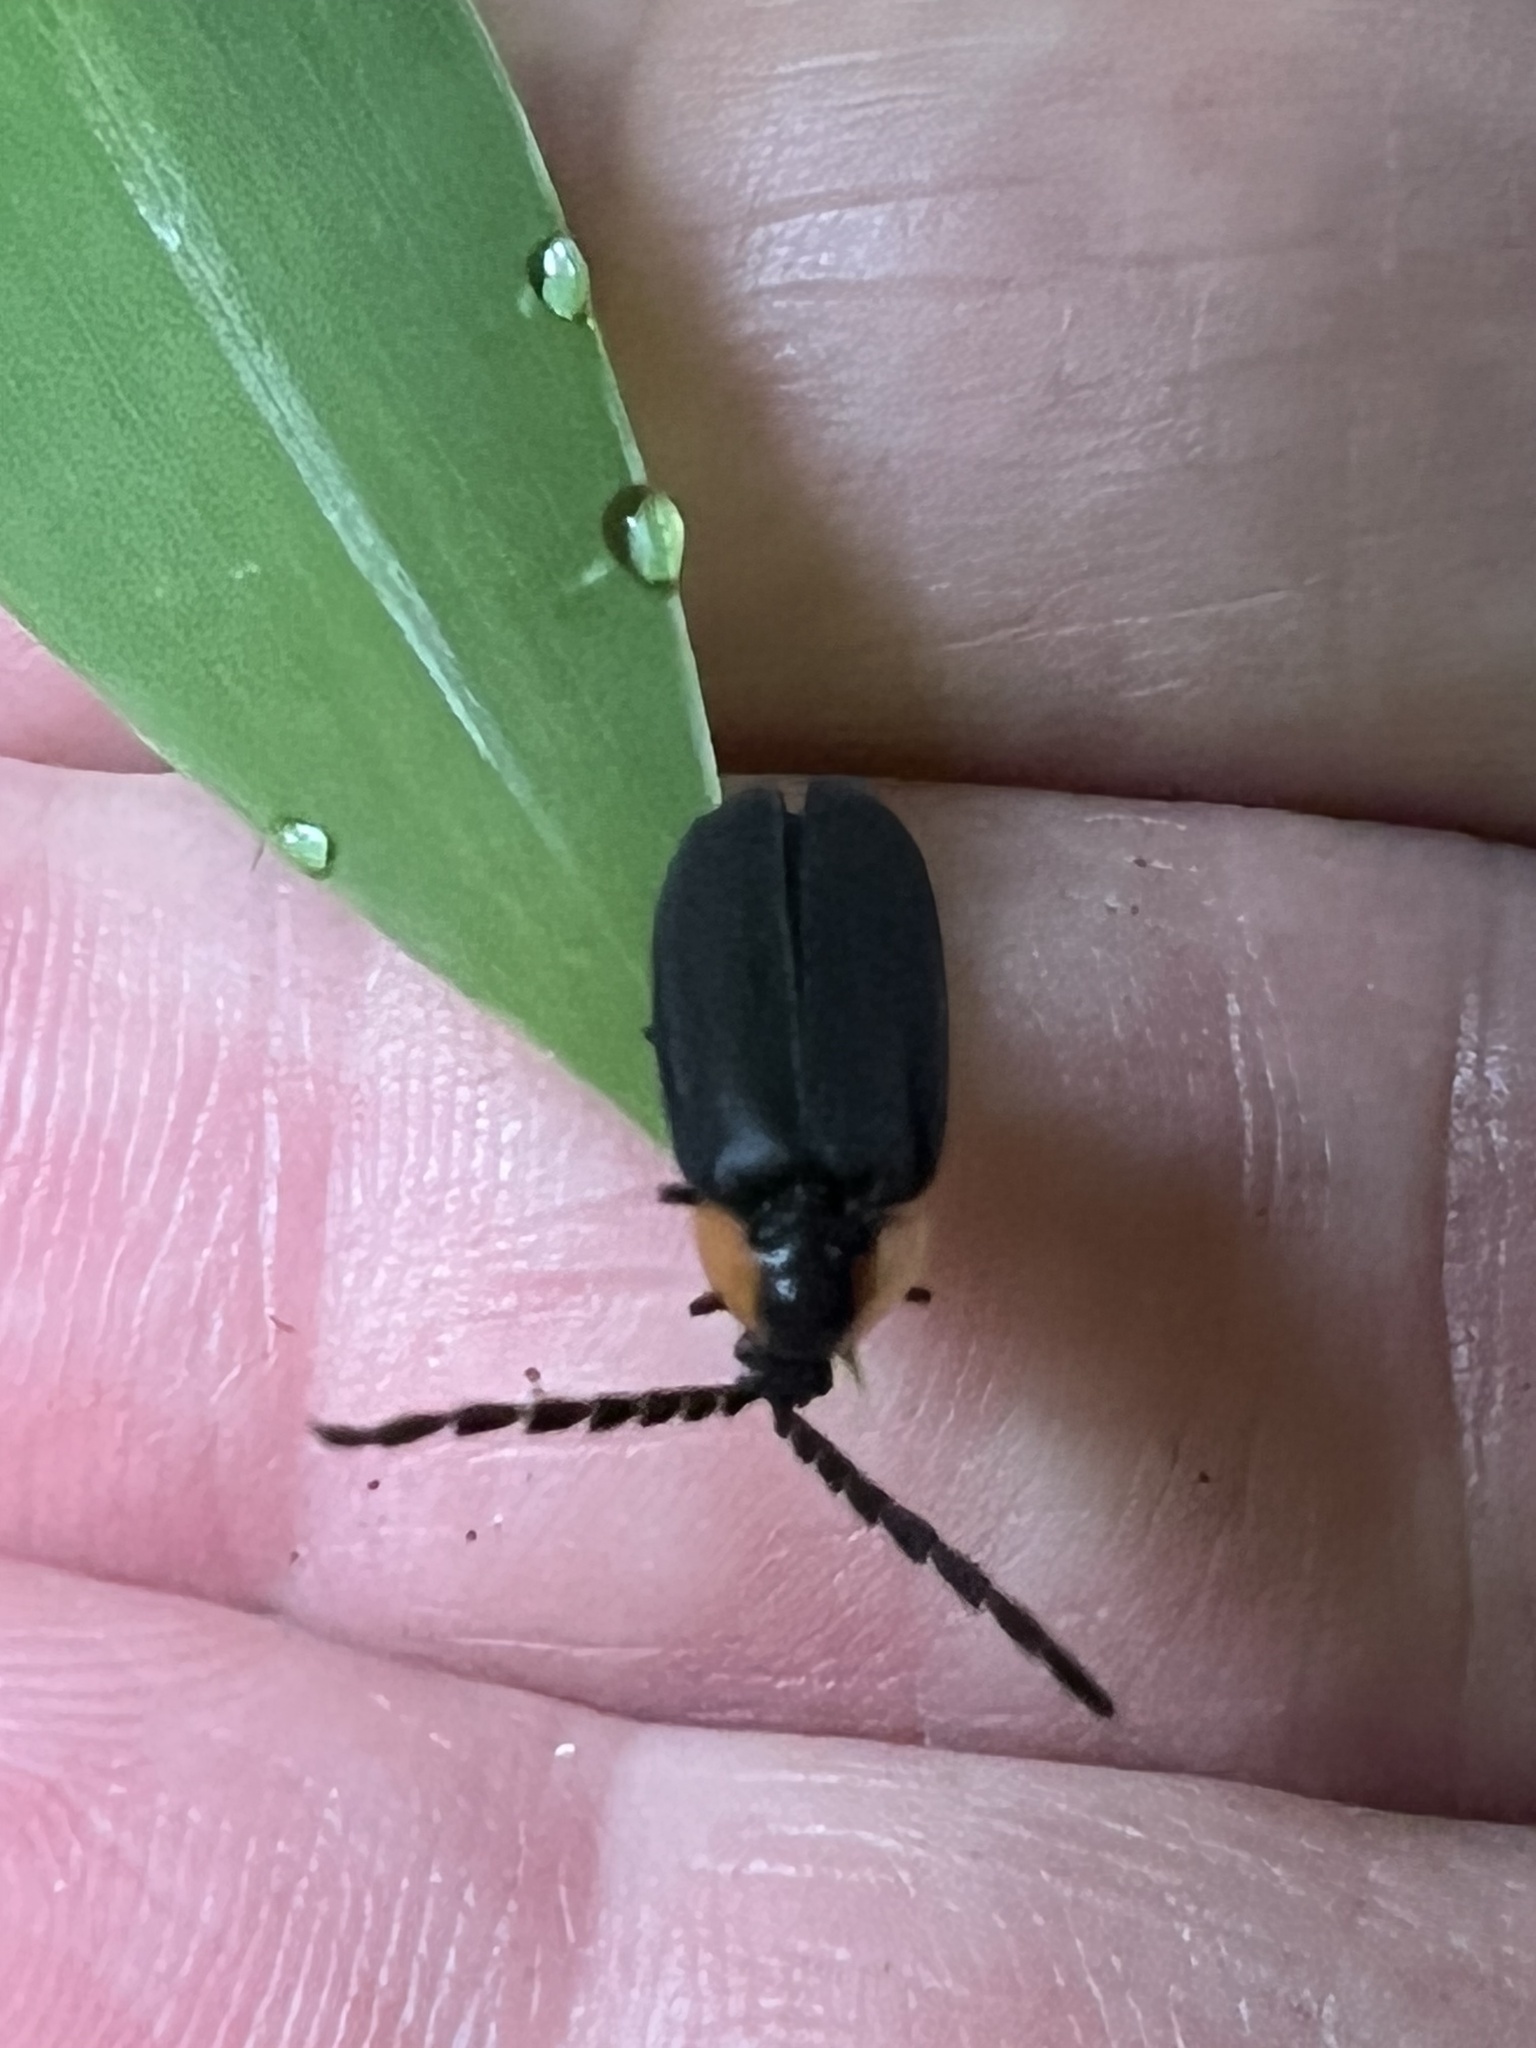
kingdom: Animalia
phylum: Arthropoda
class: Insecta
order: Coleoptera
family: Lampyridae
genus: Lucidota
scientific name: Lucidota atra
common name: Black firefly
